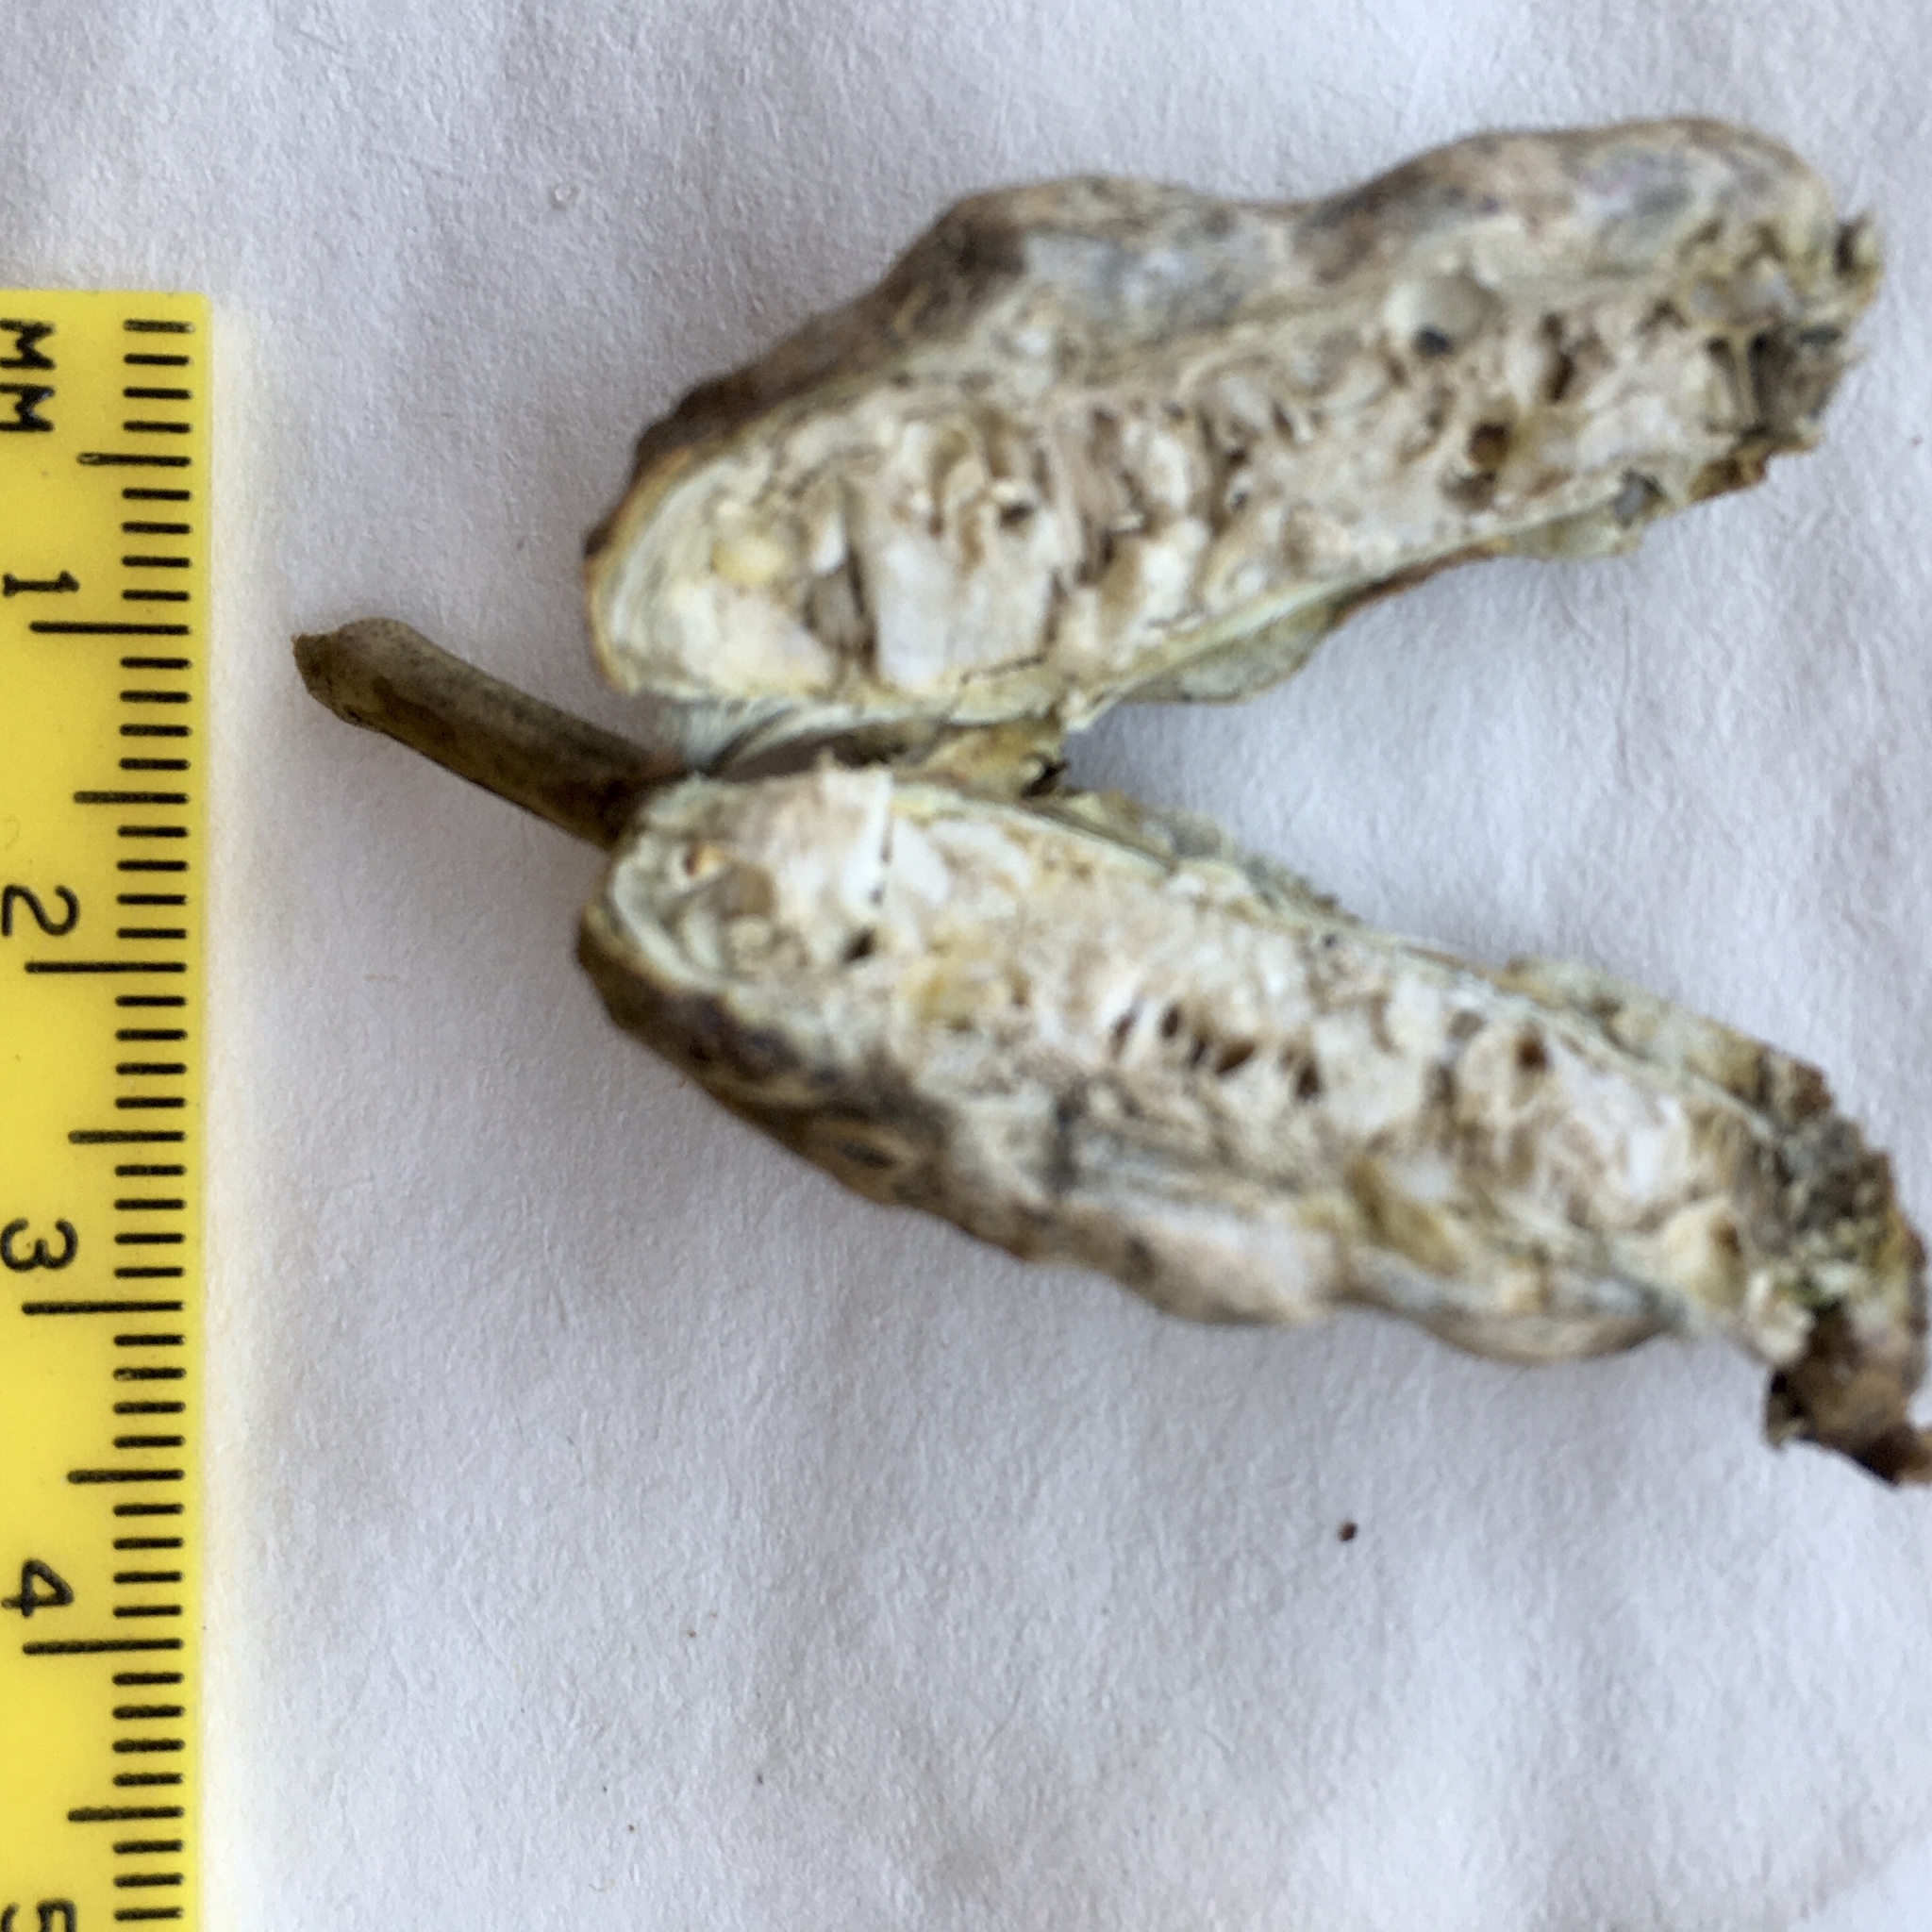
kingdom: Animalia
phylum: Arthropoda
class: Insecta
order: Hymenoptera
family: Cynipidae
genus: Diastrophus
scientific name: Diastrophus
